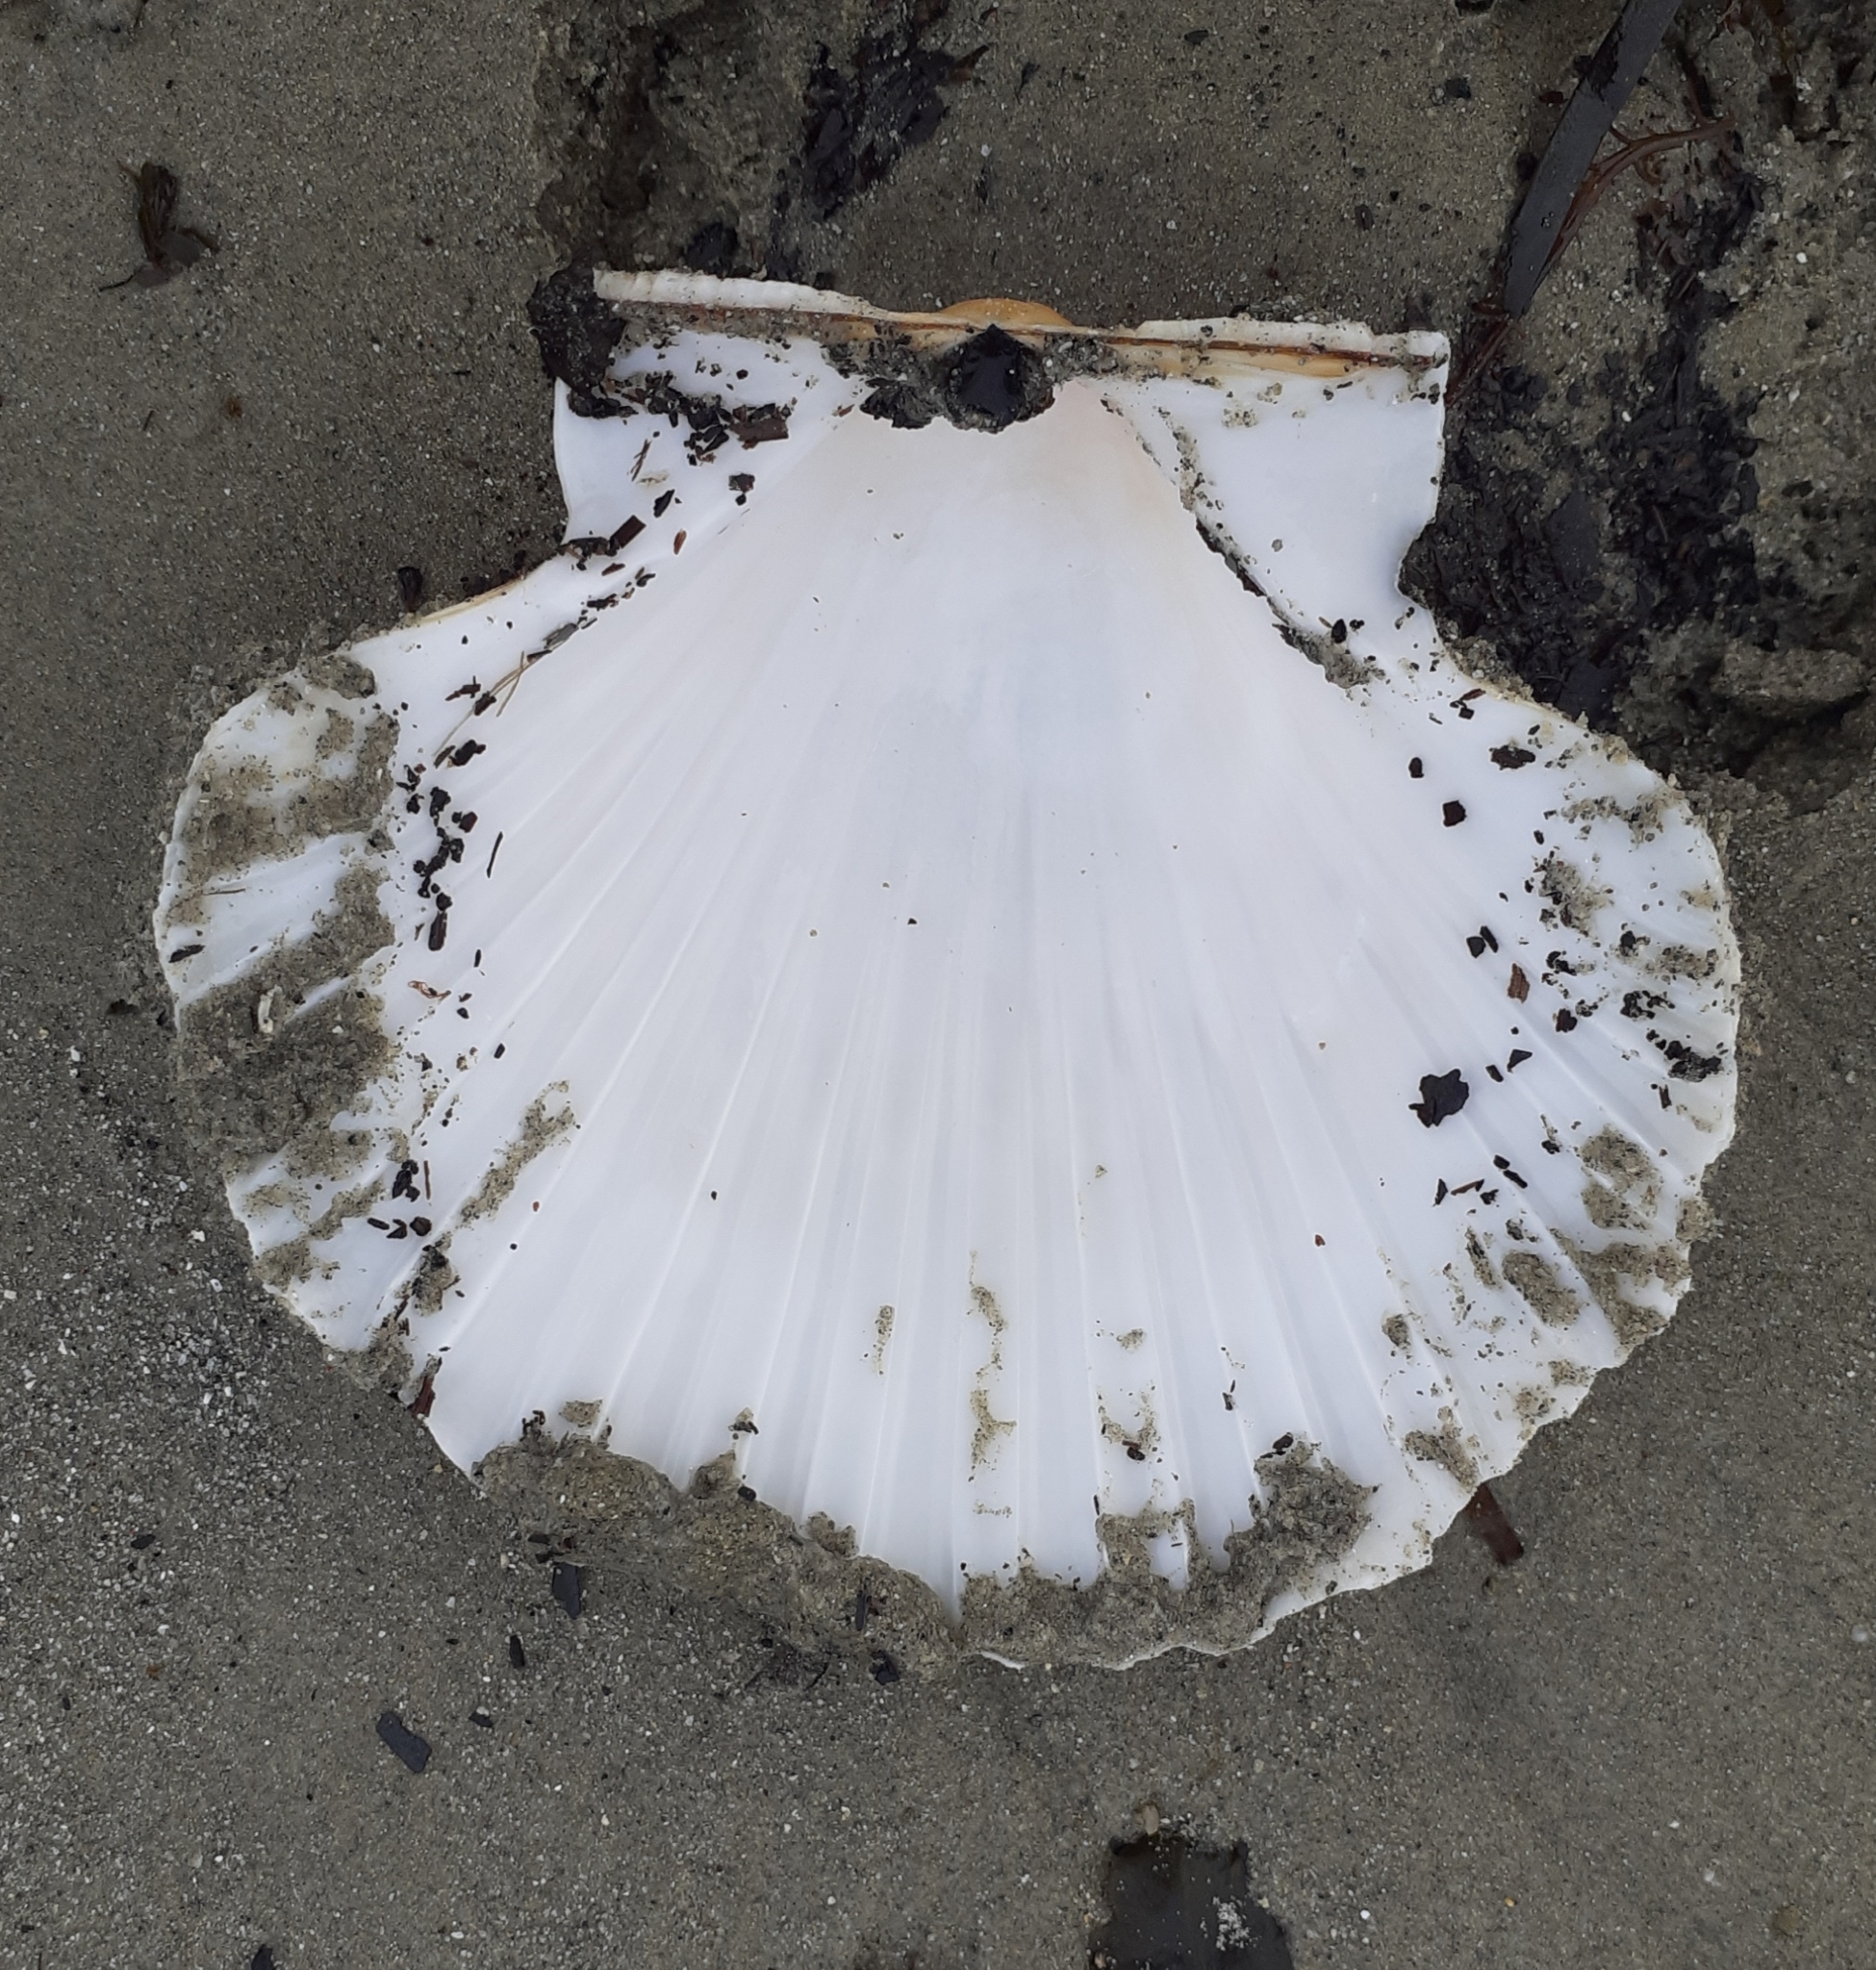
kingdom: Animalia
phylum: Mollusca
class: Bivalvia
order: Pectinida
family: Pectinidae
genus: Pecten
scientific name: Pecten maximus
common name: Great scallop
